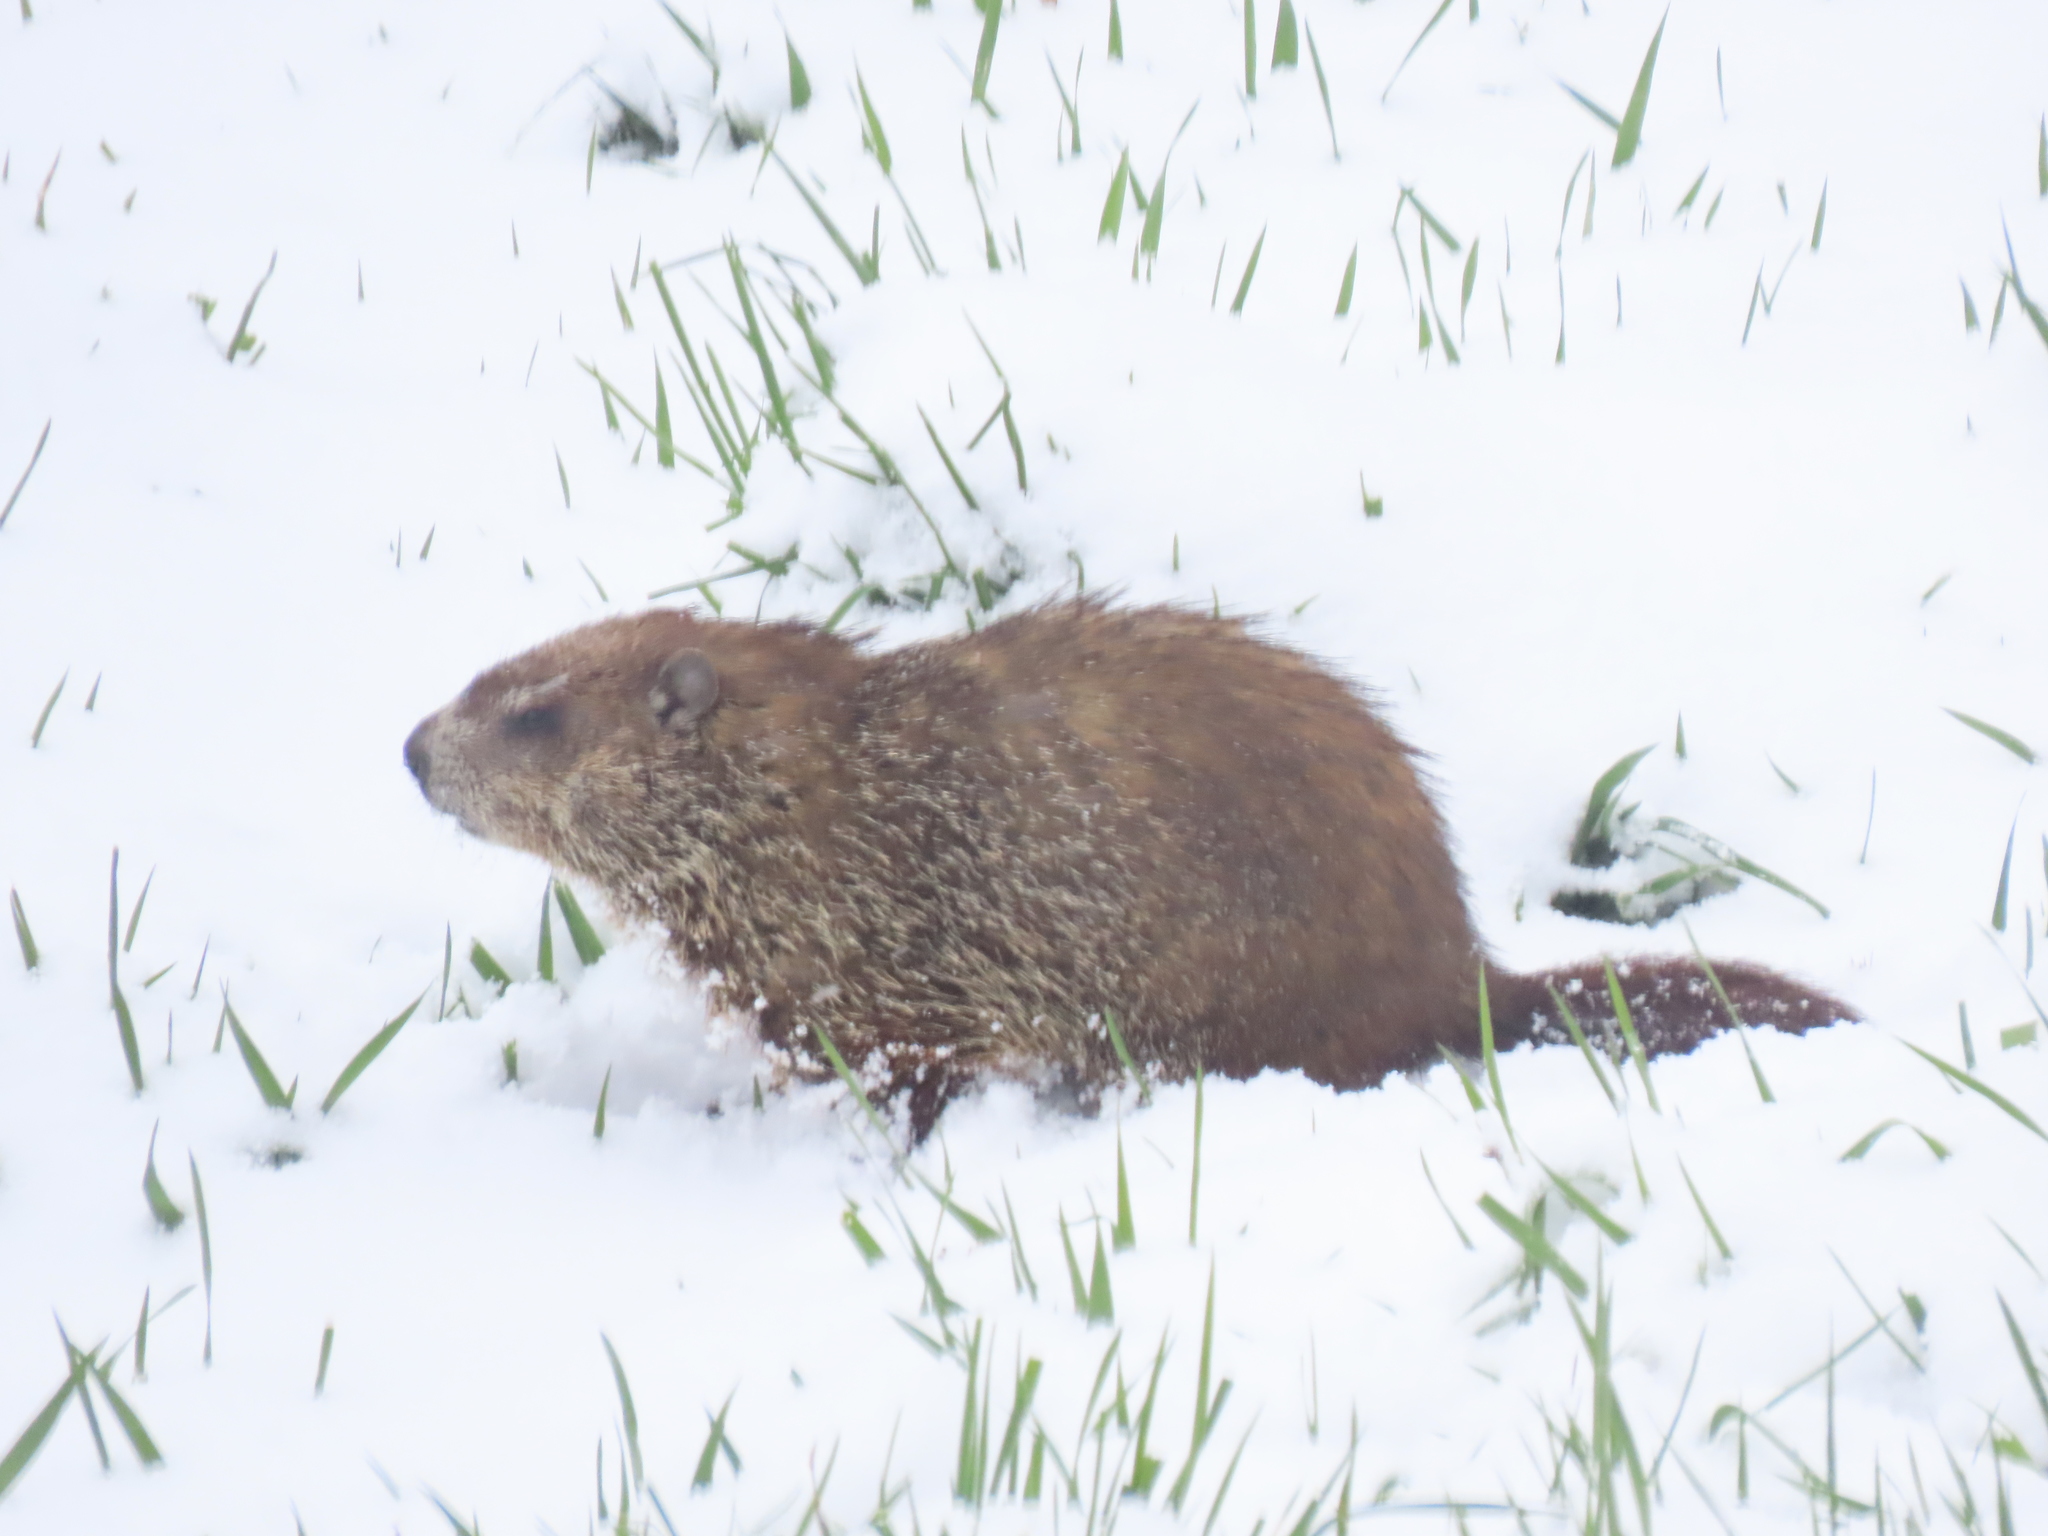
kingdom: Animalia
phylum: Chordata
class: Mammalia
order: Rodentia
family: Sciuridae
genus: Marmota
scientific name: Marmota monax
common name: Groundhog
